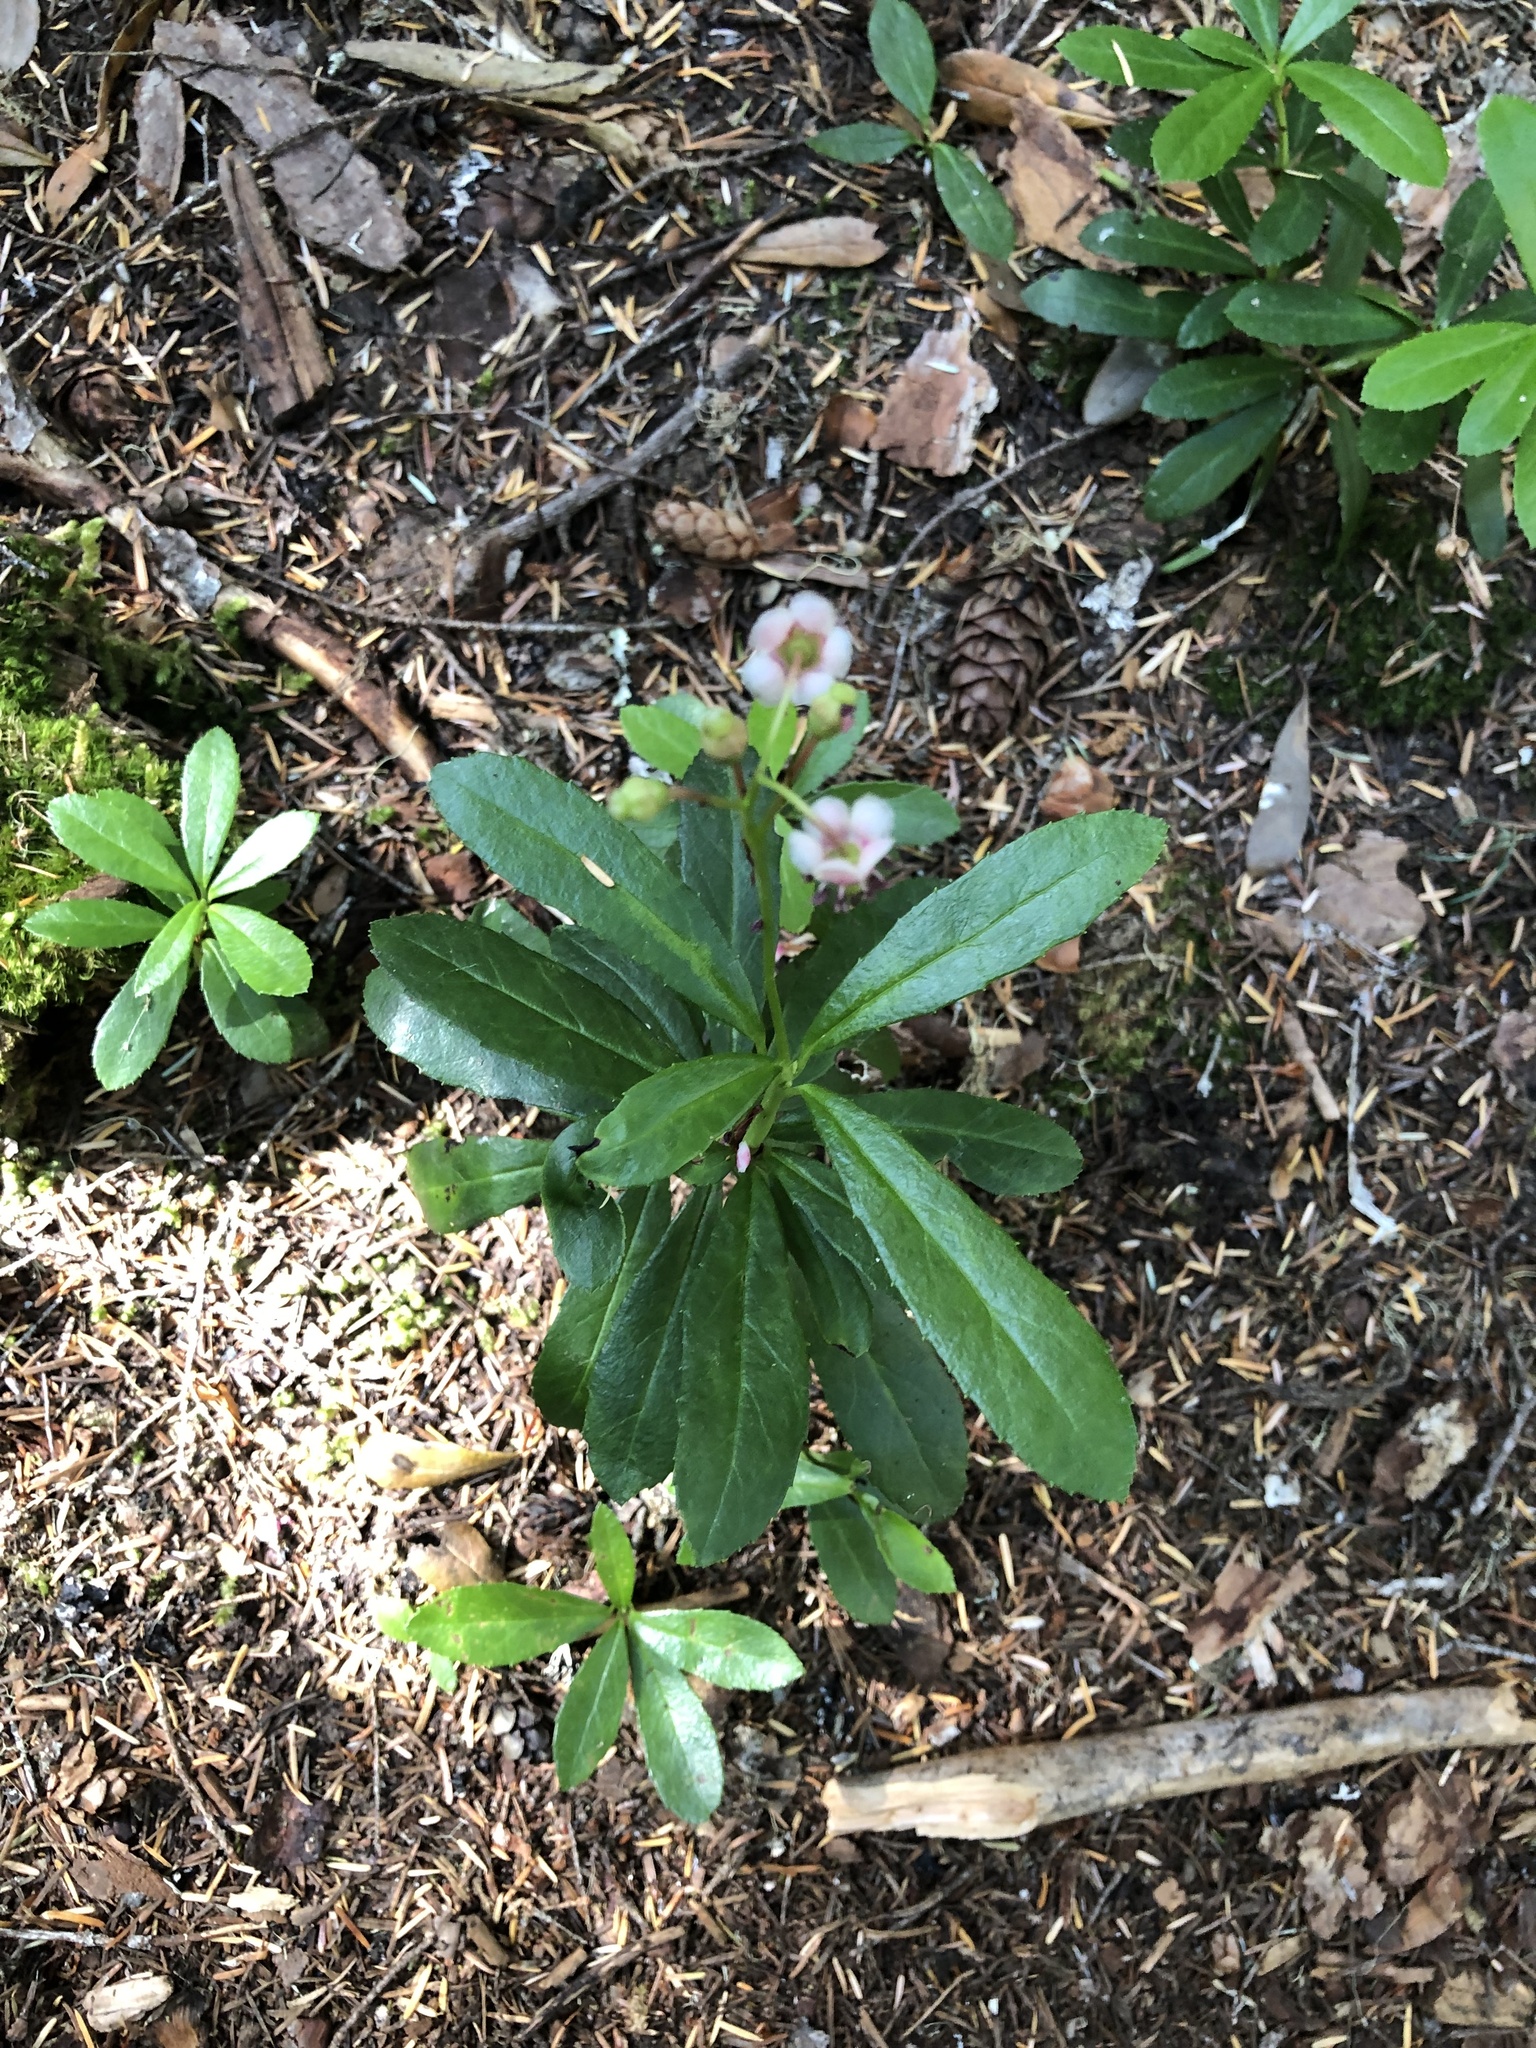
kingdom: Plantae
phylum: Tracheophyta
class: Magnoliopsida
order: Ericales
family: Ericaceae
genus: Chimaphila
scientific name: Chimaphila umbellata
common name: Pipsissewa
